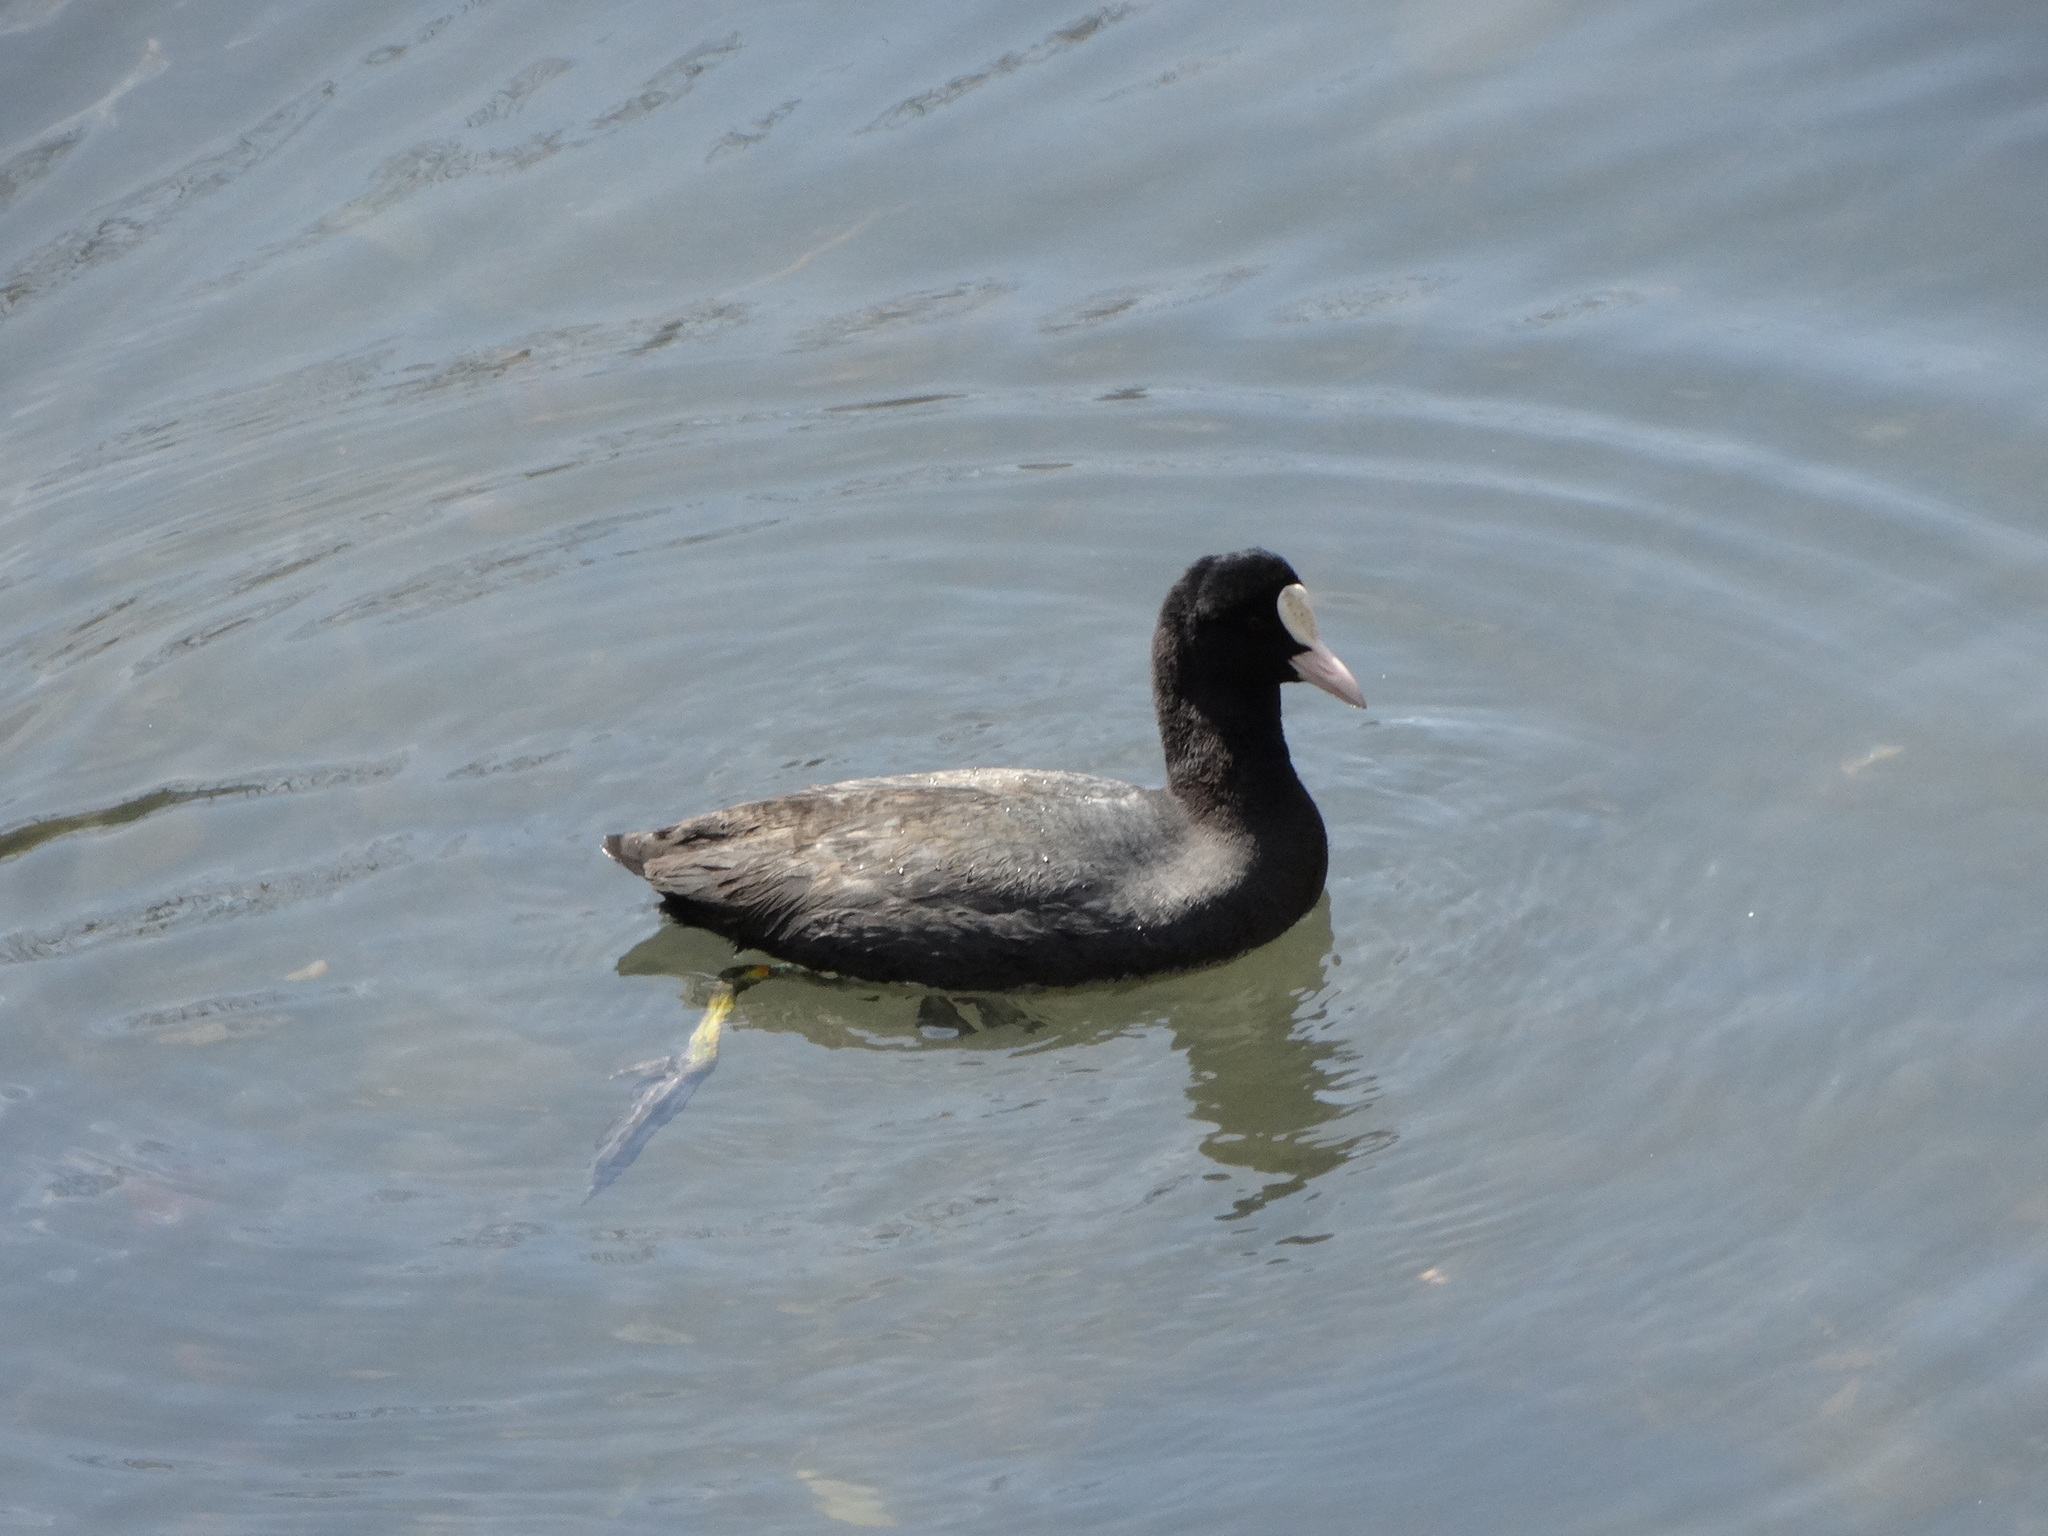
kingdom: Animalia
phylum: Chordata
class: Aves
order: Gruiformes
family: Rallidae
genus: Fulica
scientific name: Fulica atra
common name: Eurasian coot
